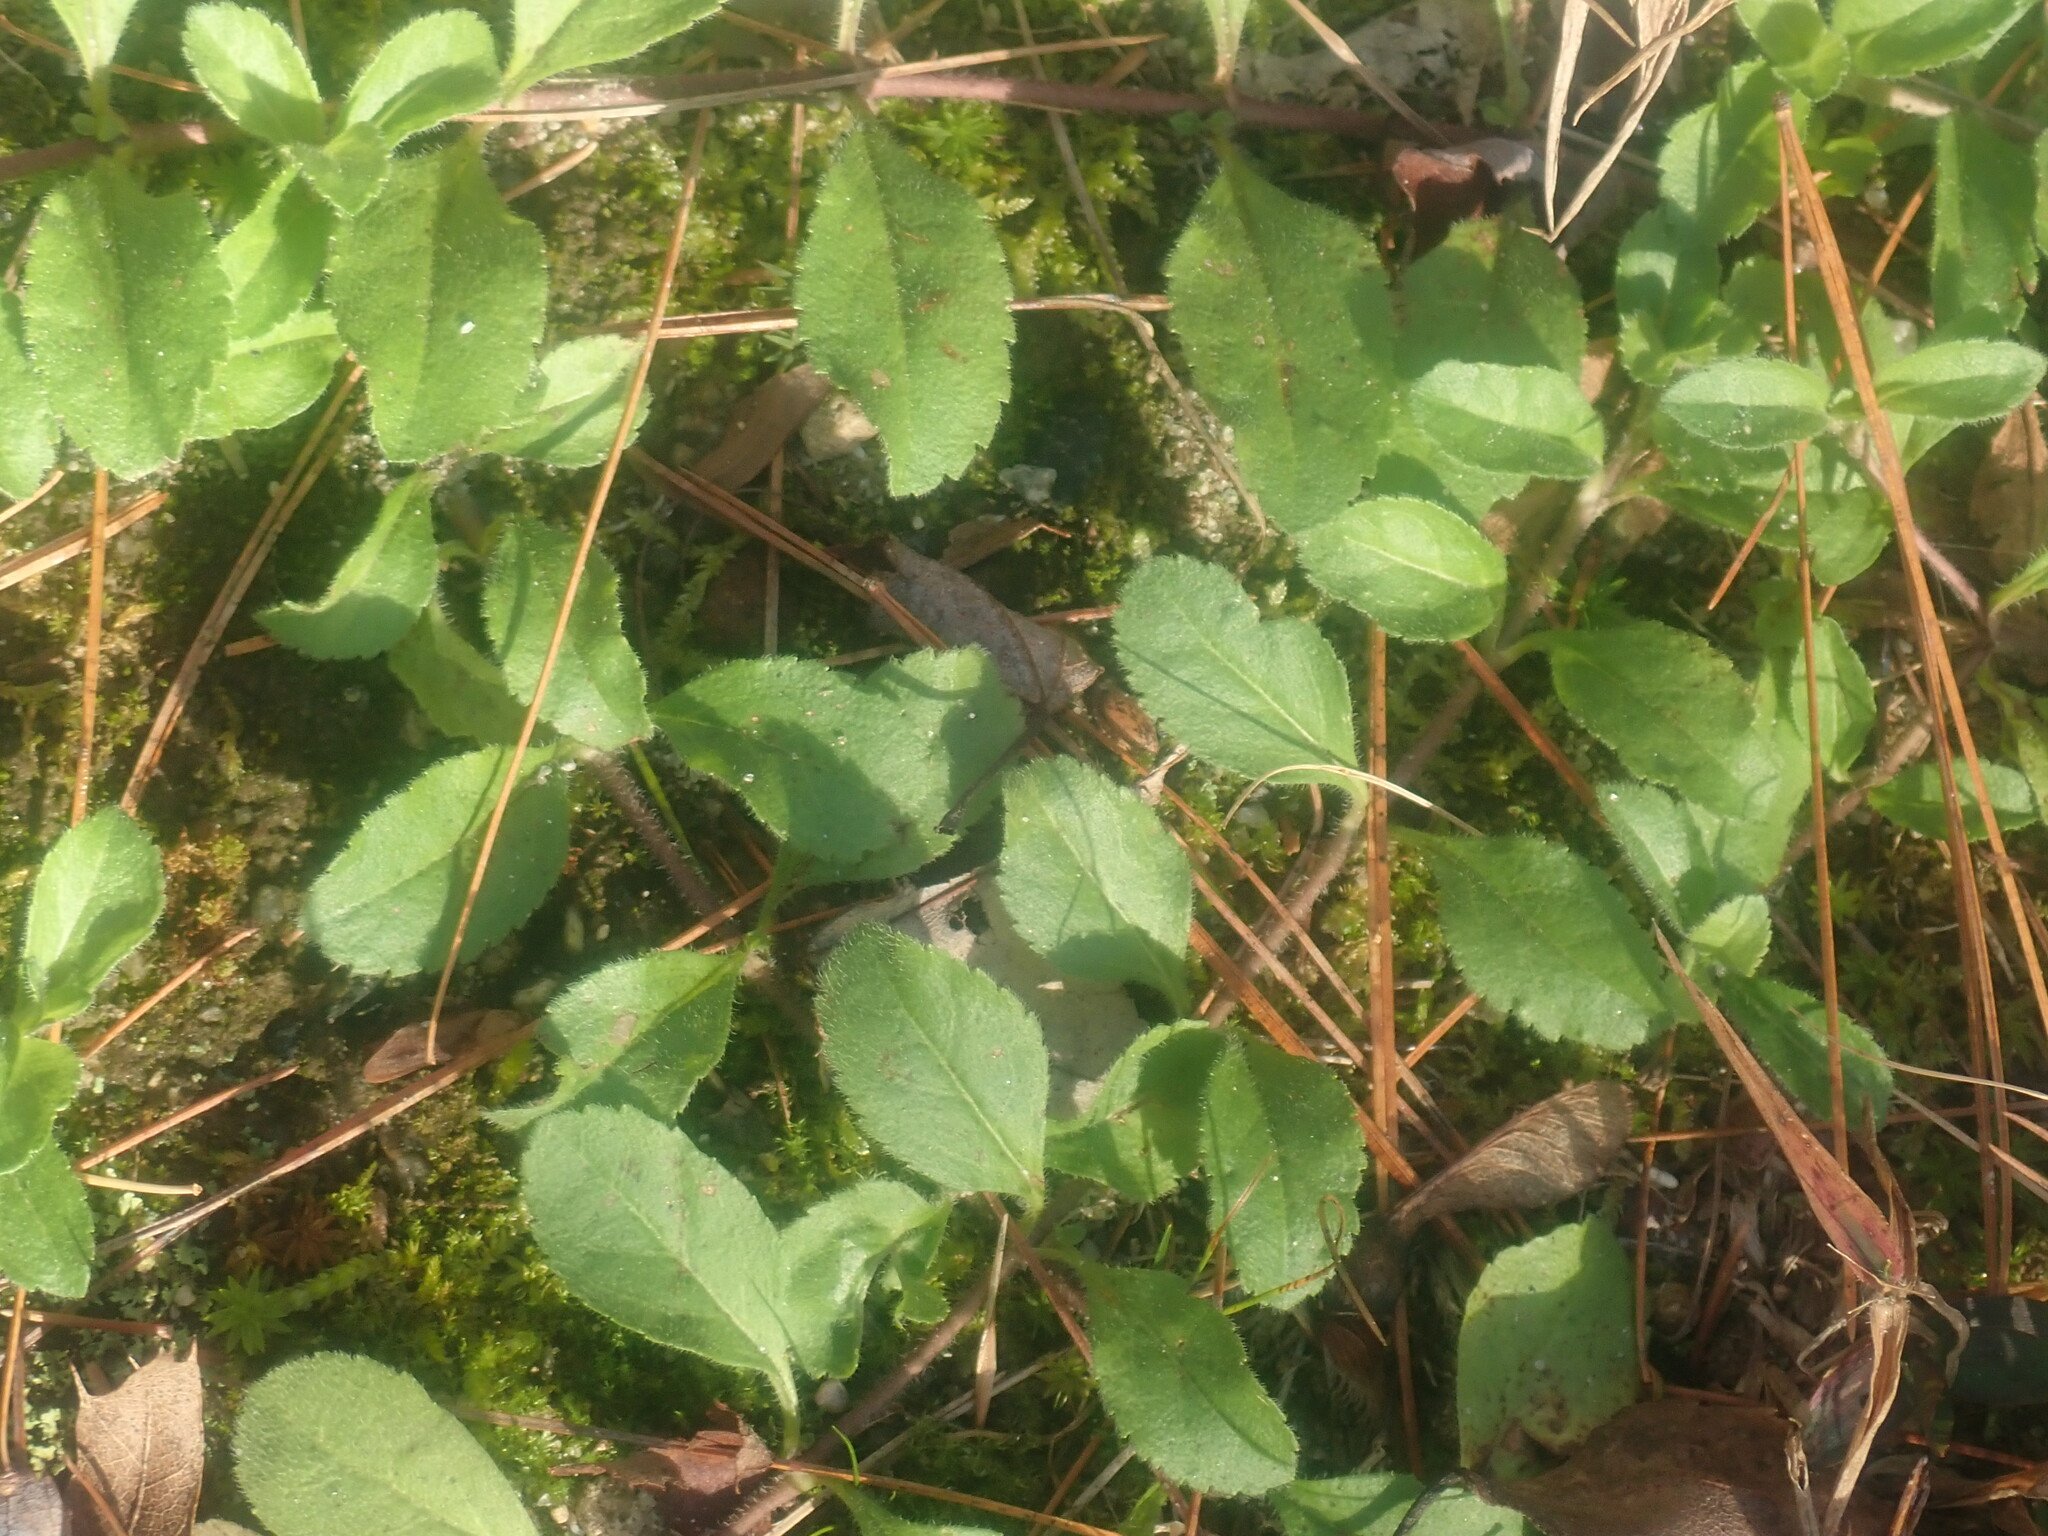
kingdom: Plantae
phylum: Tracheophyta
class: Magnoliopsida
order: Lamiales
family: Plantaginaceae
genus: Veronica
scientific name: Veronica officinalis
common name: Common speedwell
